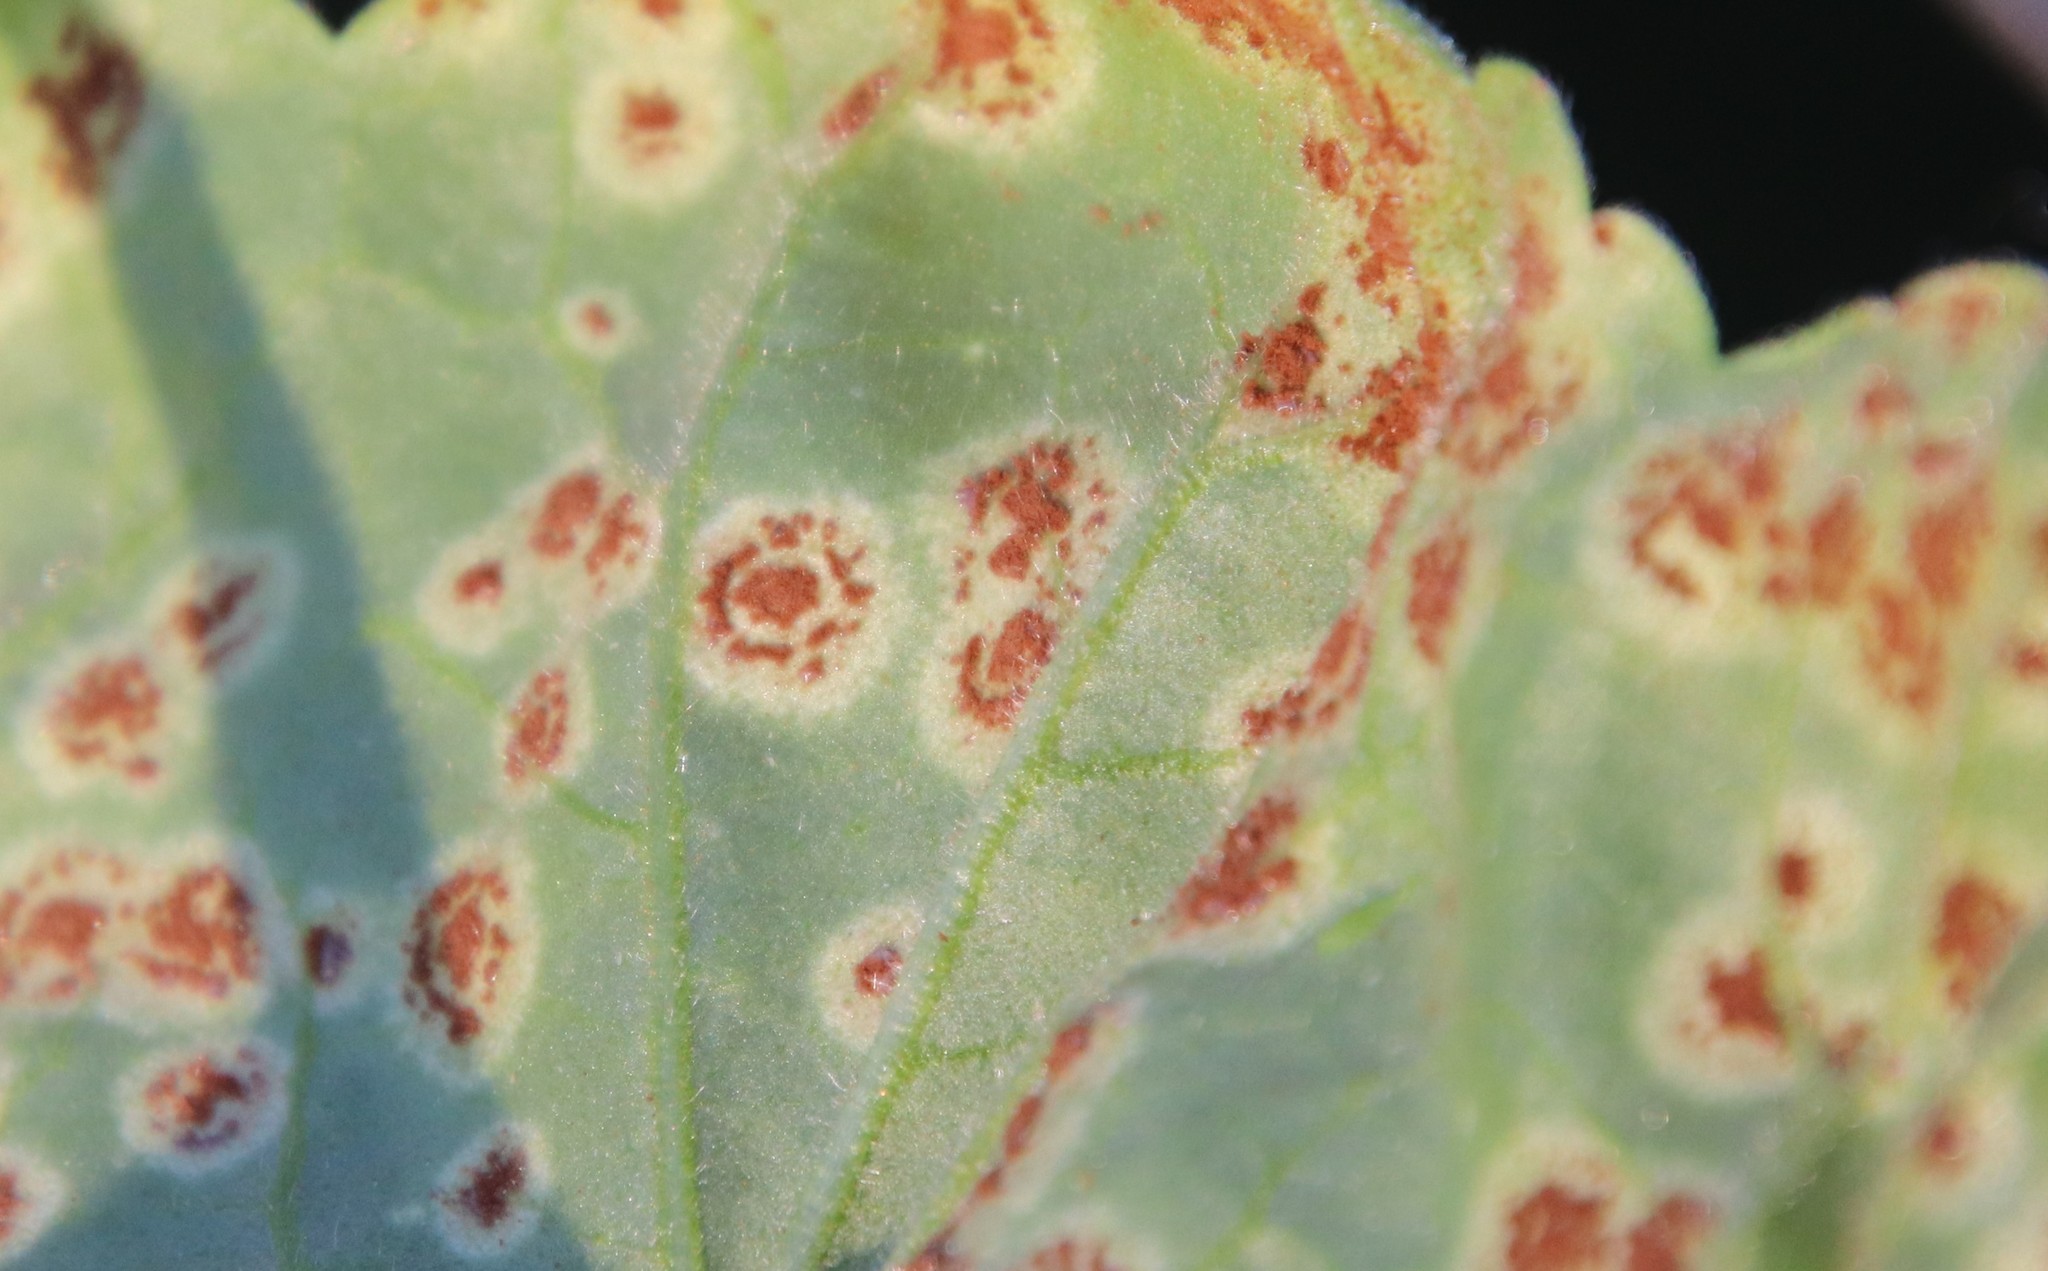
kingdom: Fungi
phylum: Basidiomycota
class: Pucciniomycetes
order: Pucciniales
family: Pucciniaceae
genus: Puccinia
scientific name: Puccinia pelargonii-zonalis
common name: Rust of pelargonium
